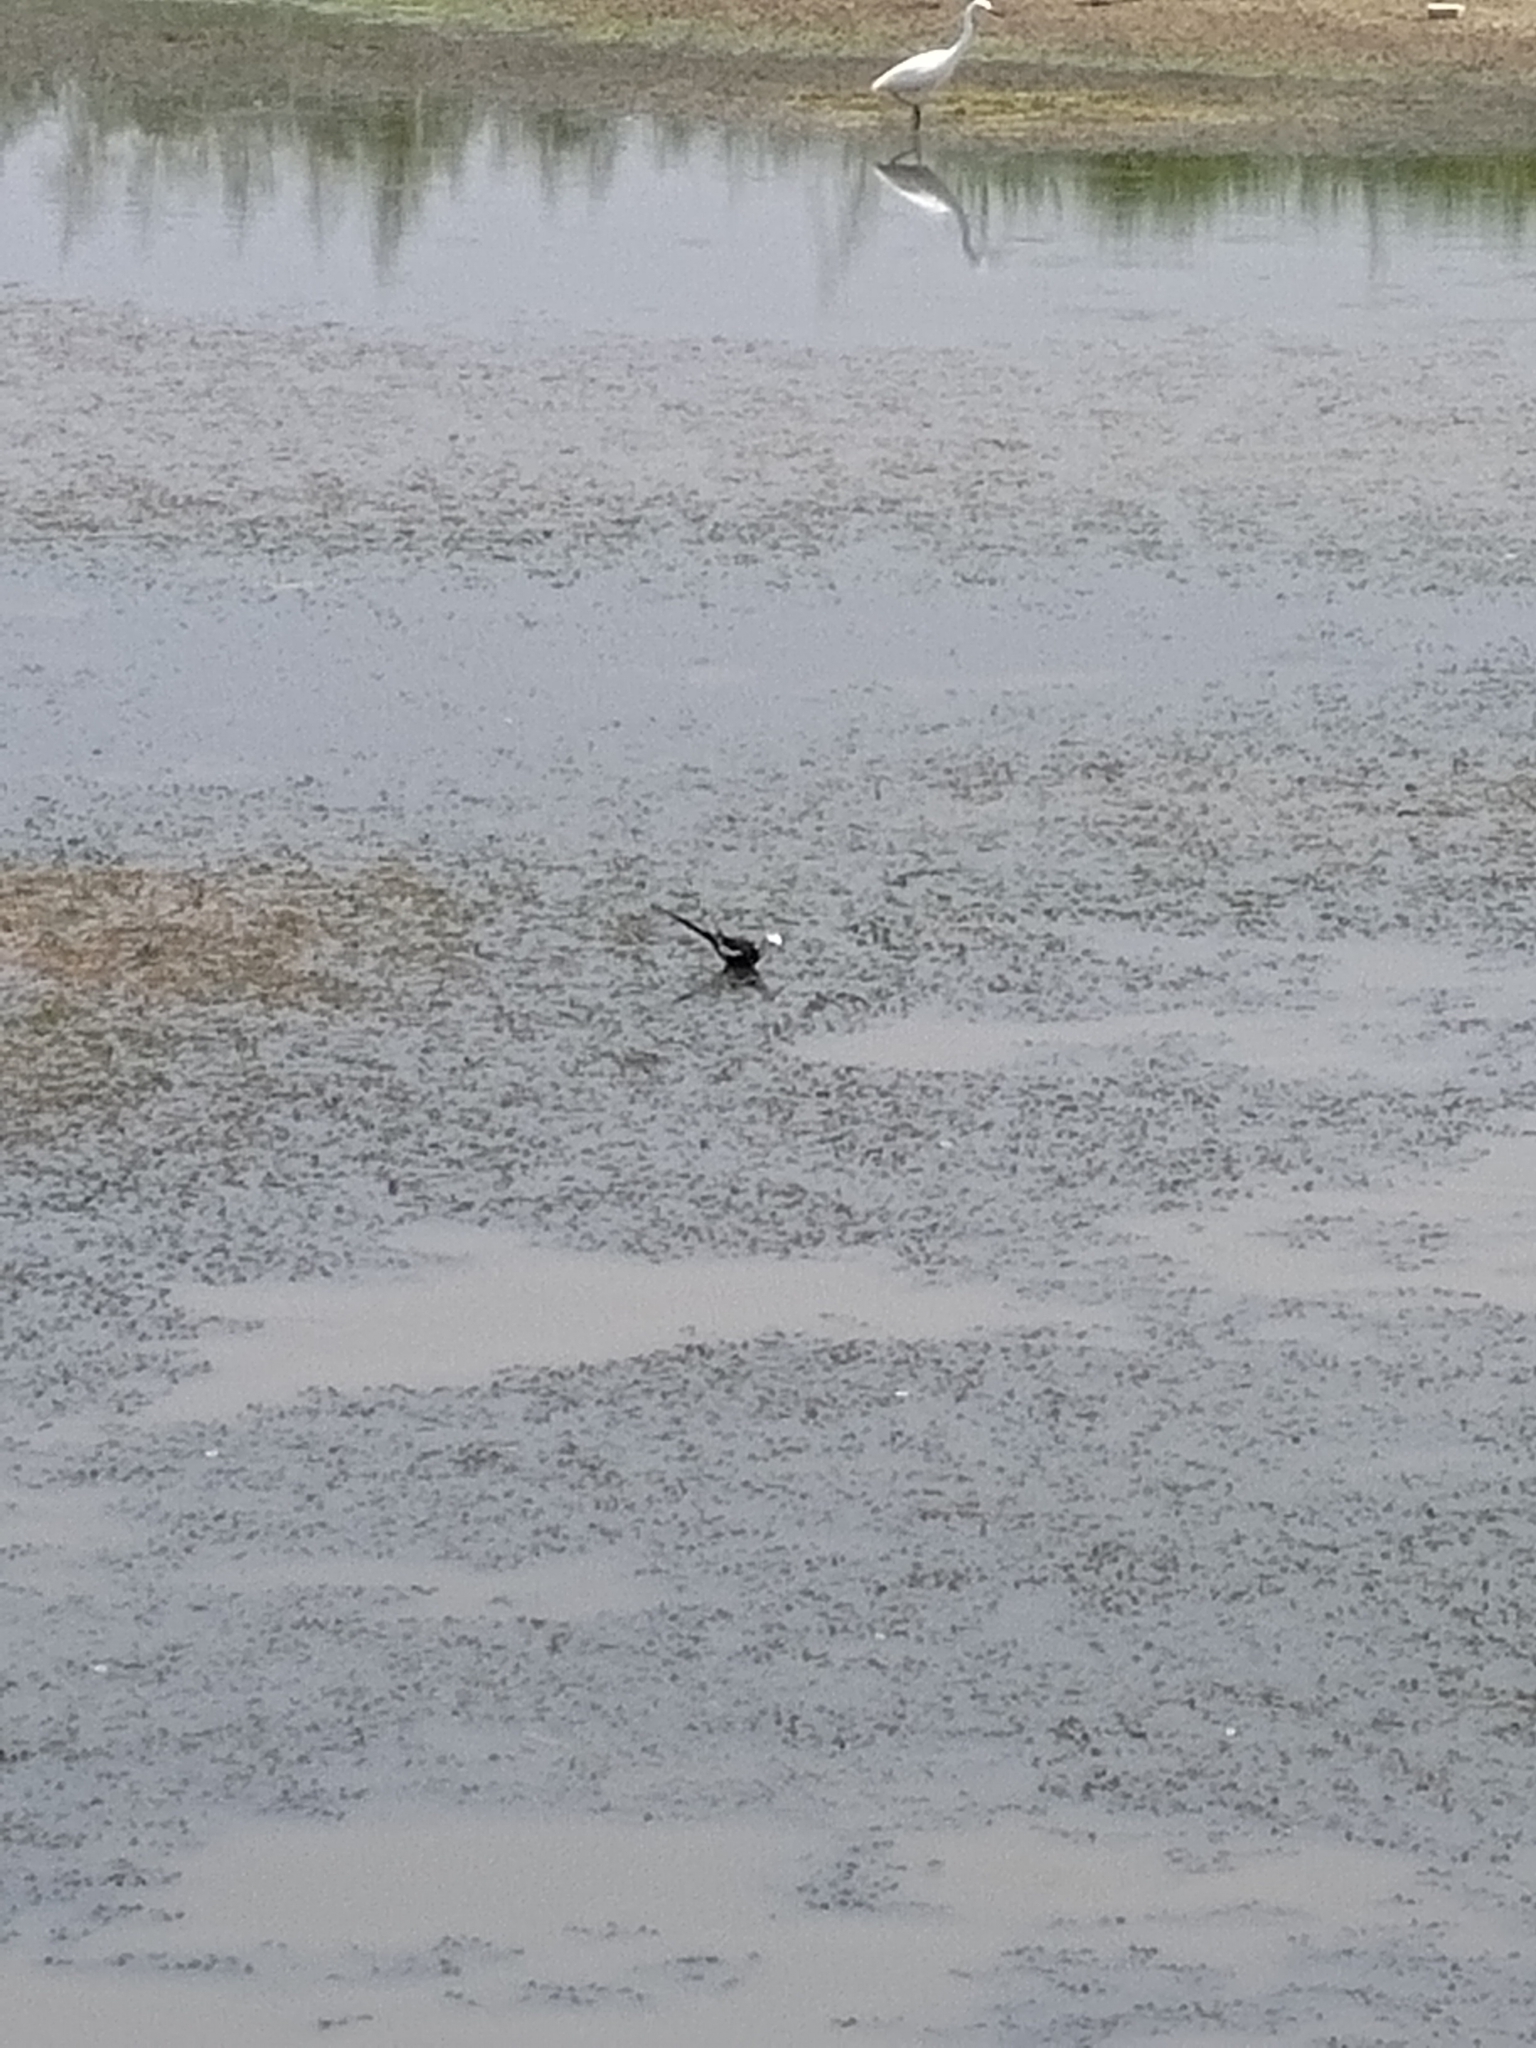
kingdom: Animalia
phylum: Chordata
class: Aves
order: Charadriiformes
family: Jacanidae
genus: Hydrophasianus
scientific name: Hydrophasianus chirurgus
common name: Pheasant-tailed jacana
